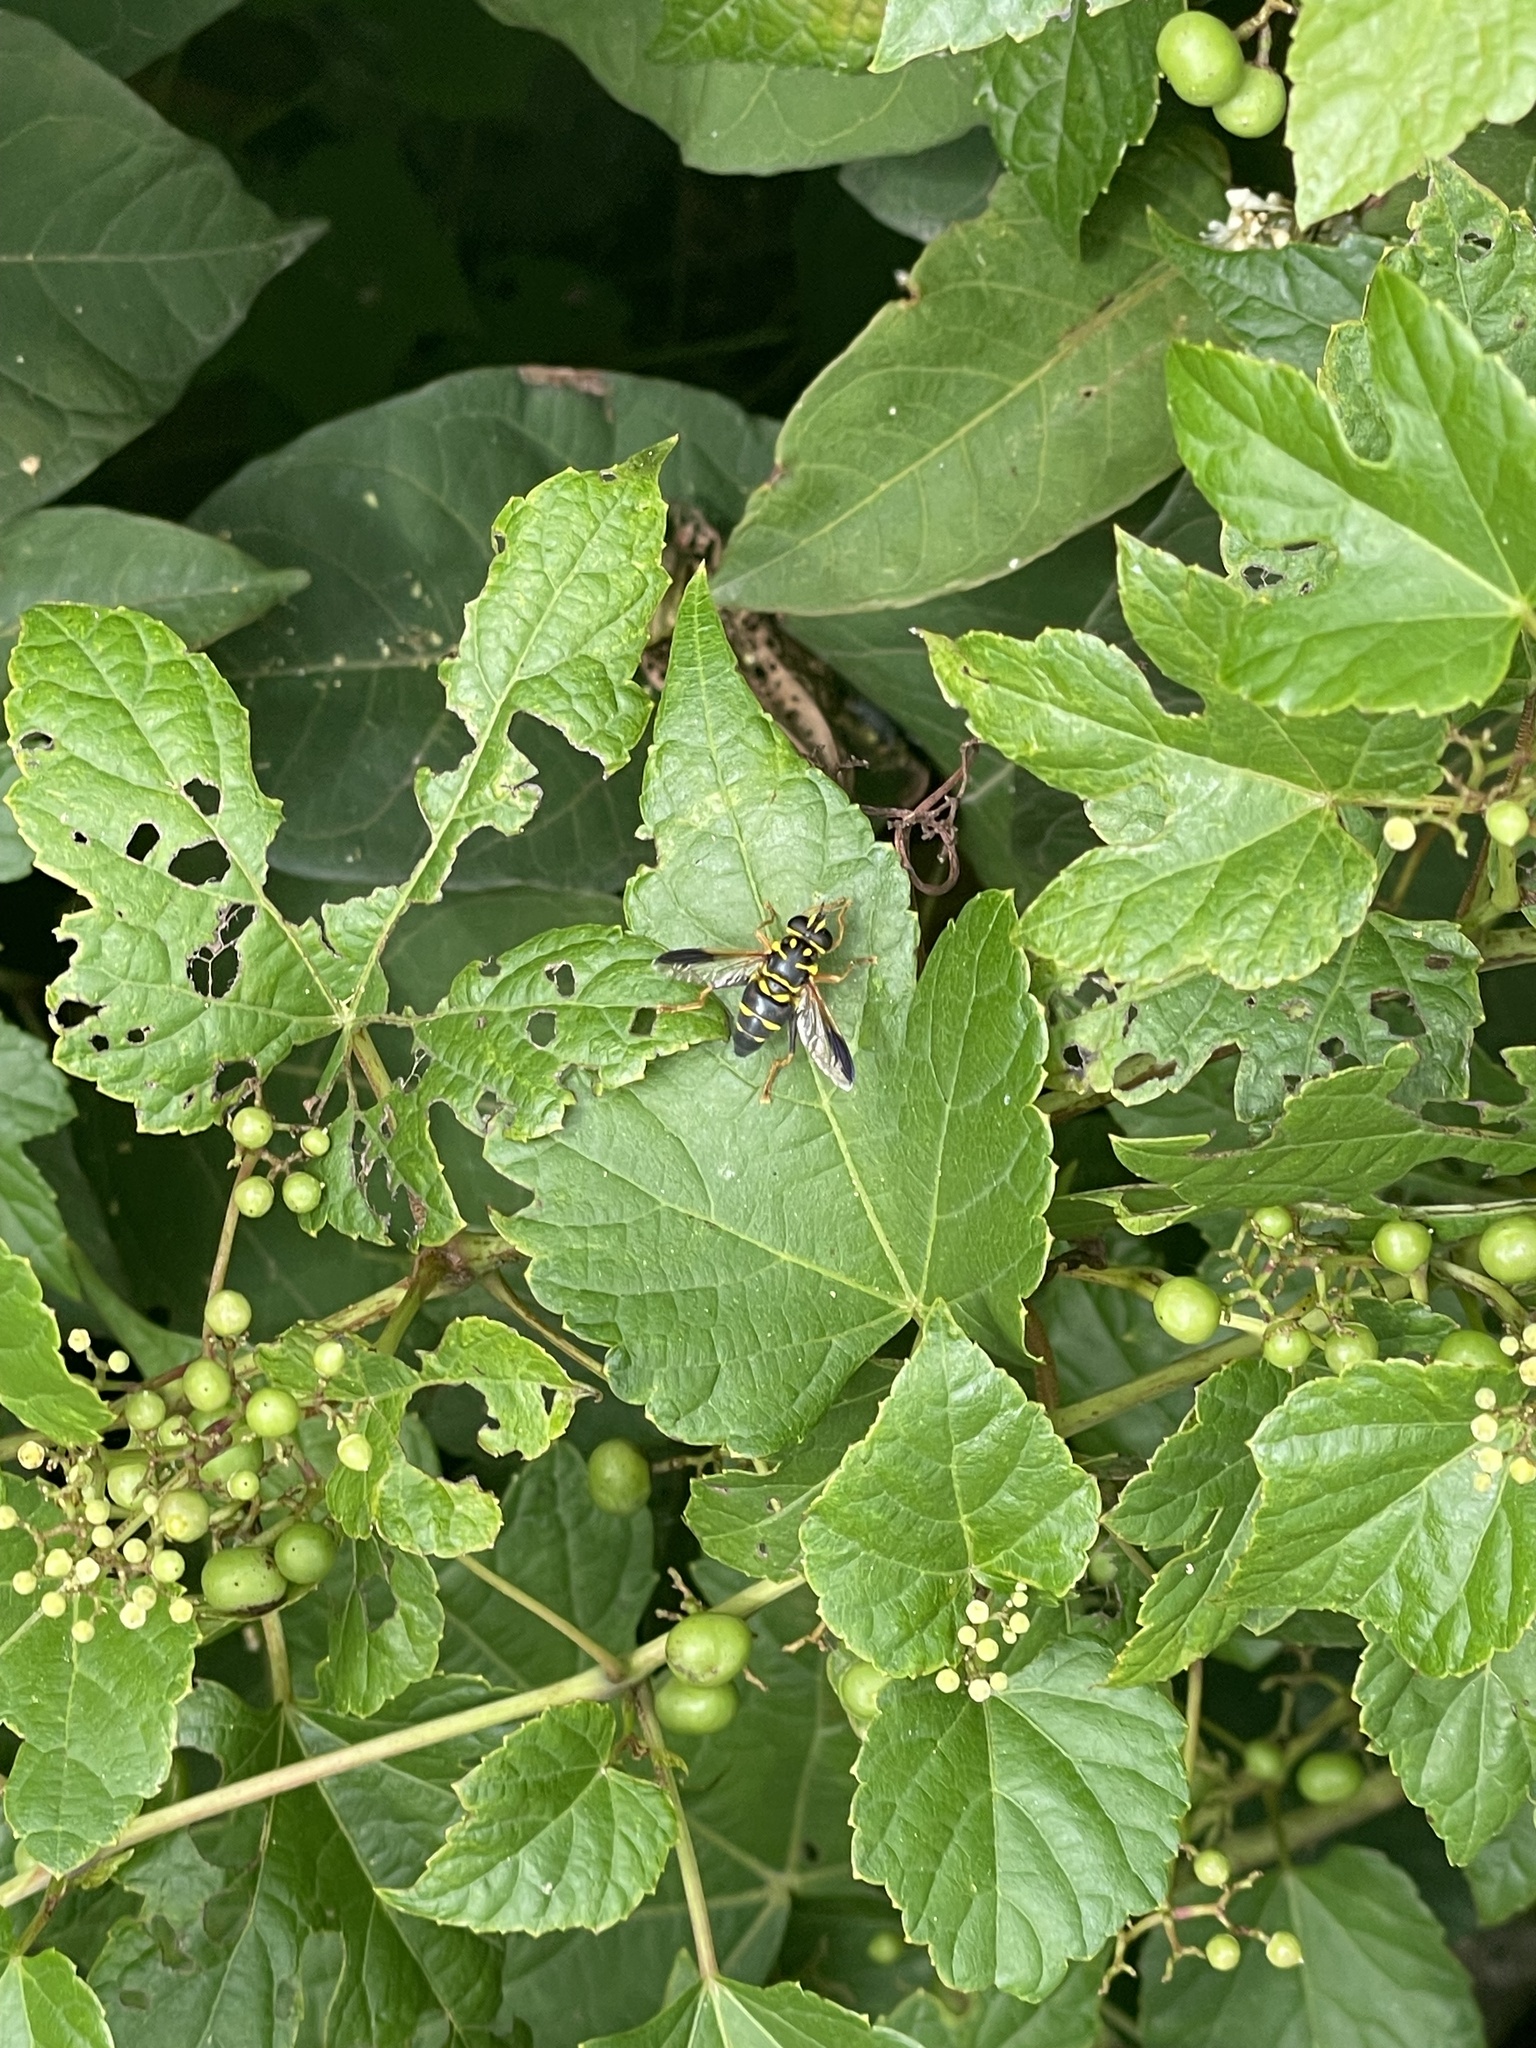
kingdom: Animalia
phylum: Arthropoda
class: Insecta
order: Diptera
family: Syrphidae
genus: Meromacrus
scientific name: Meromacrus acutus
